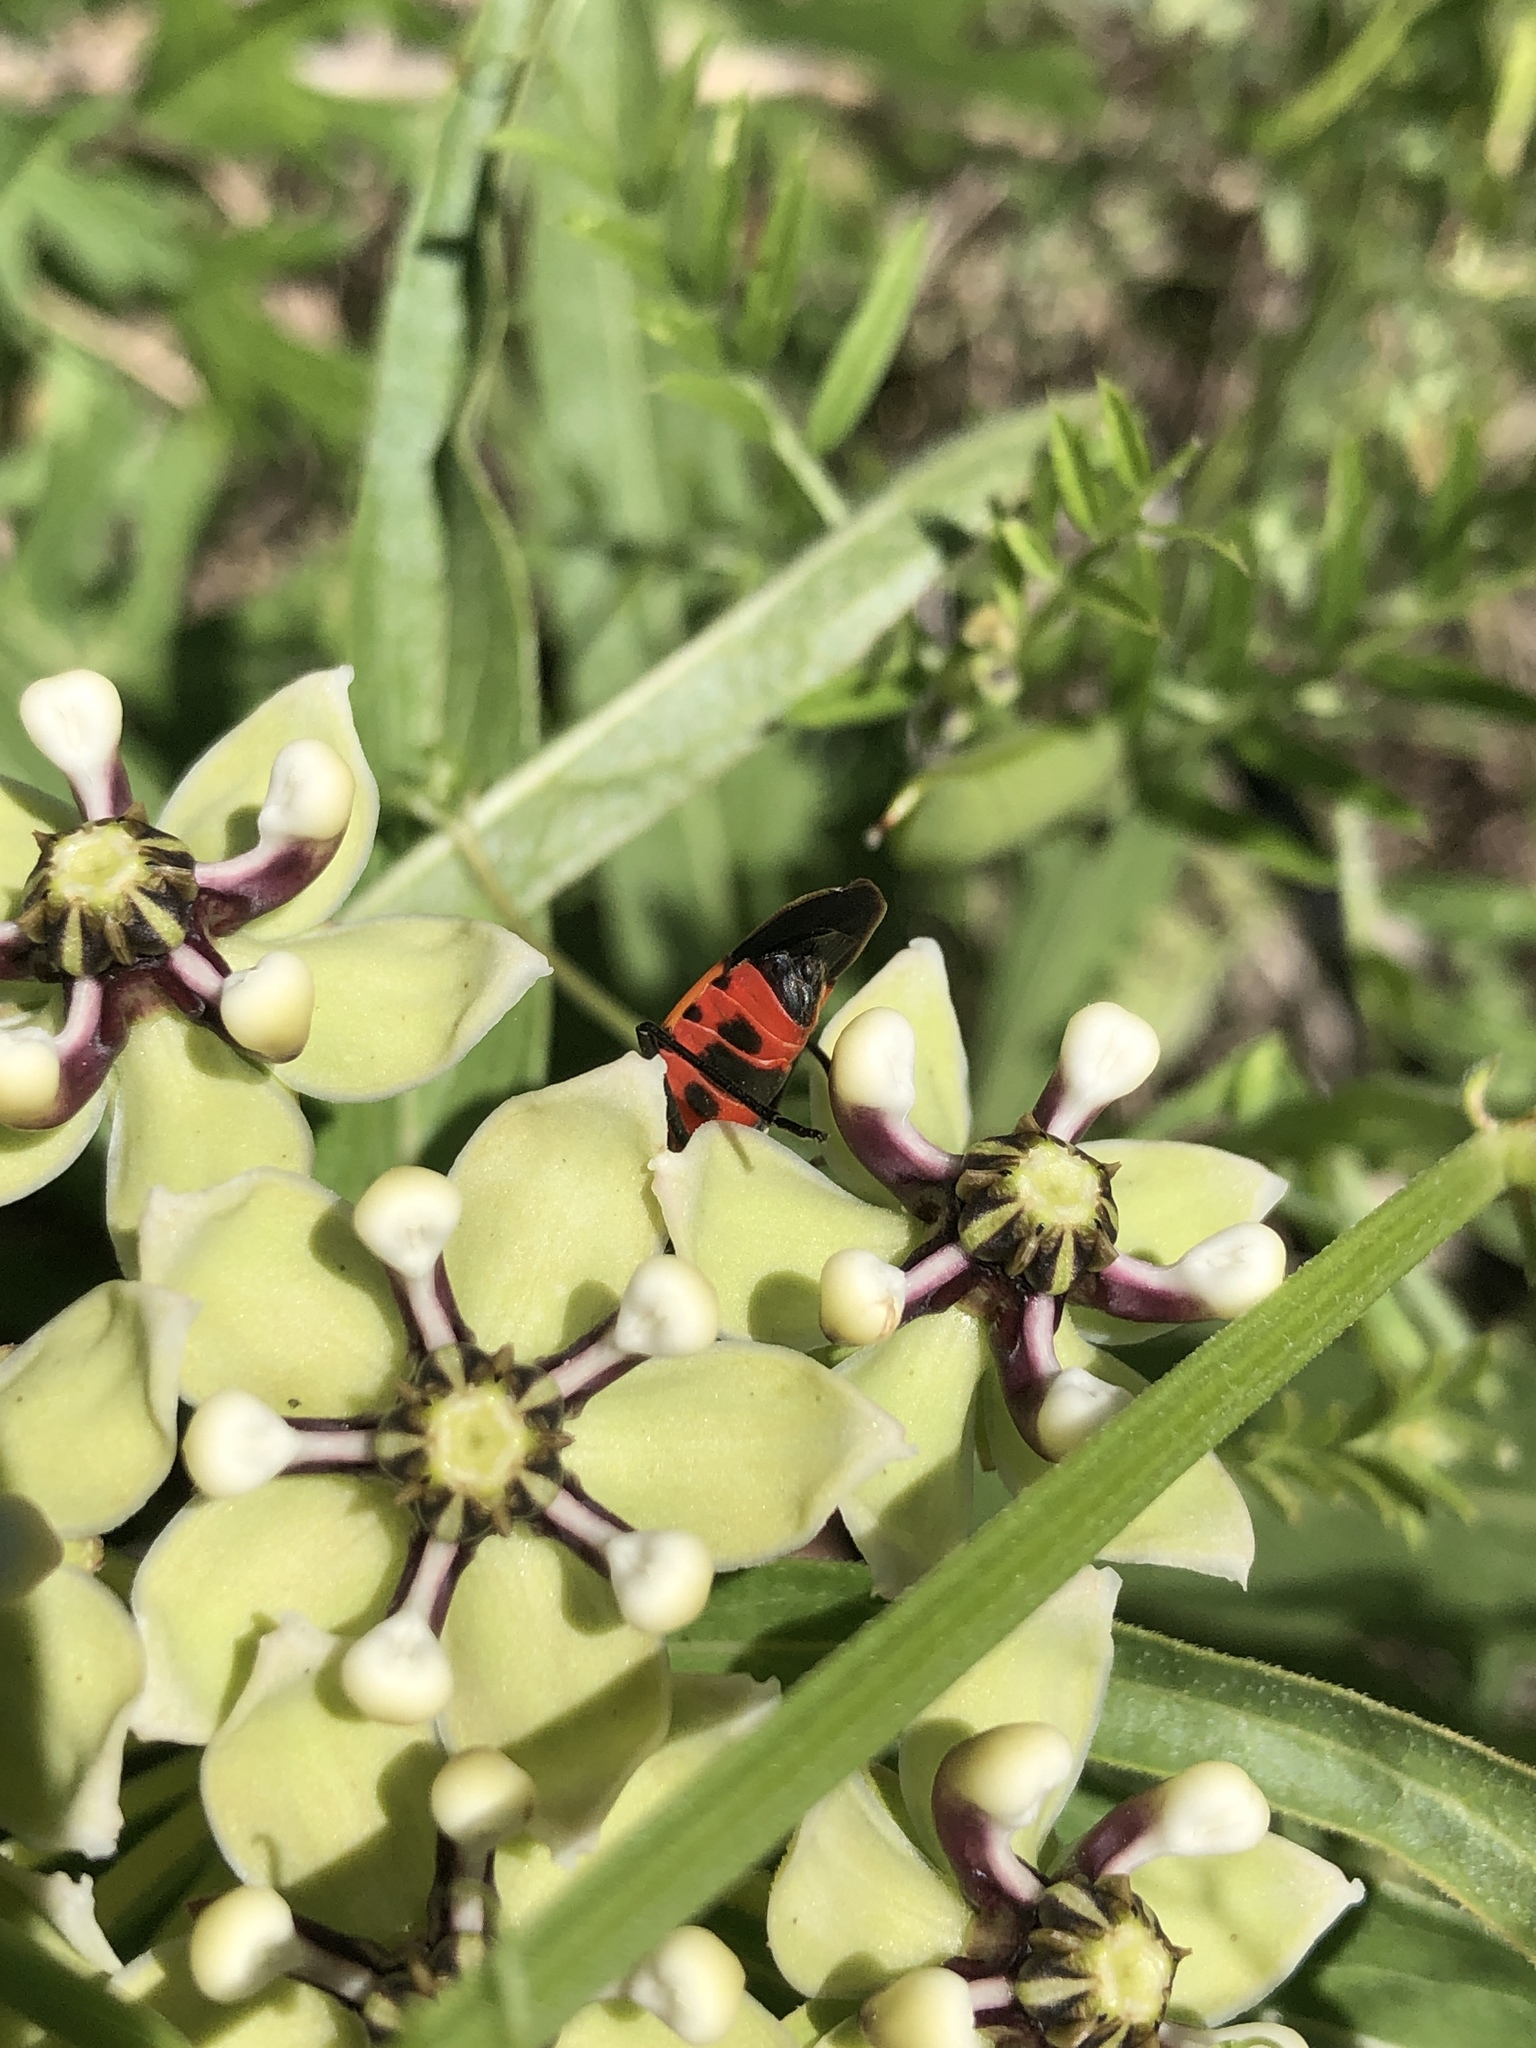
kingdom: Animalia
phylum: Arthropoda
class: Insecta
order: Hemiptera
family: Lygaeidae
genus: Oncopeltus
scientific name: Oncopeltus fasciatus
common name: Large milkweed bug
